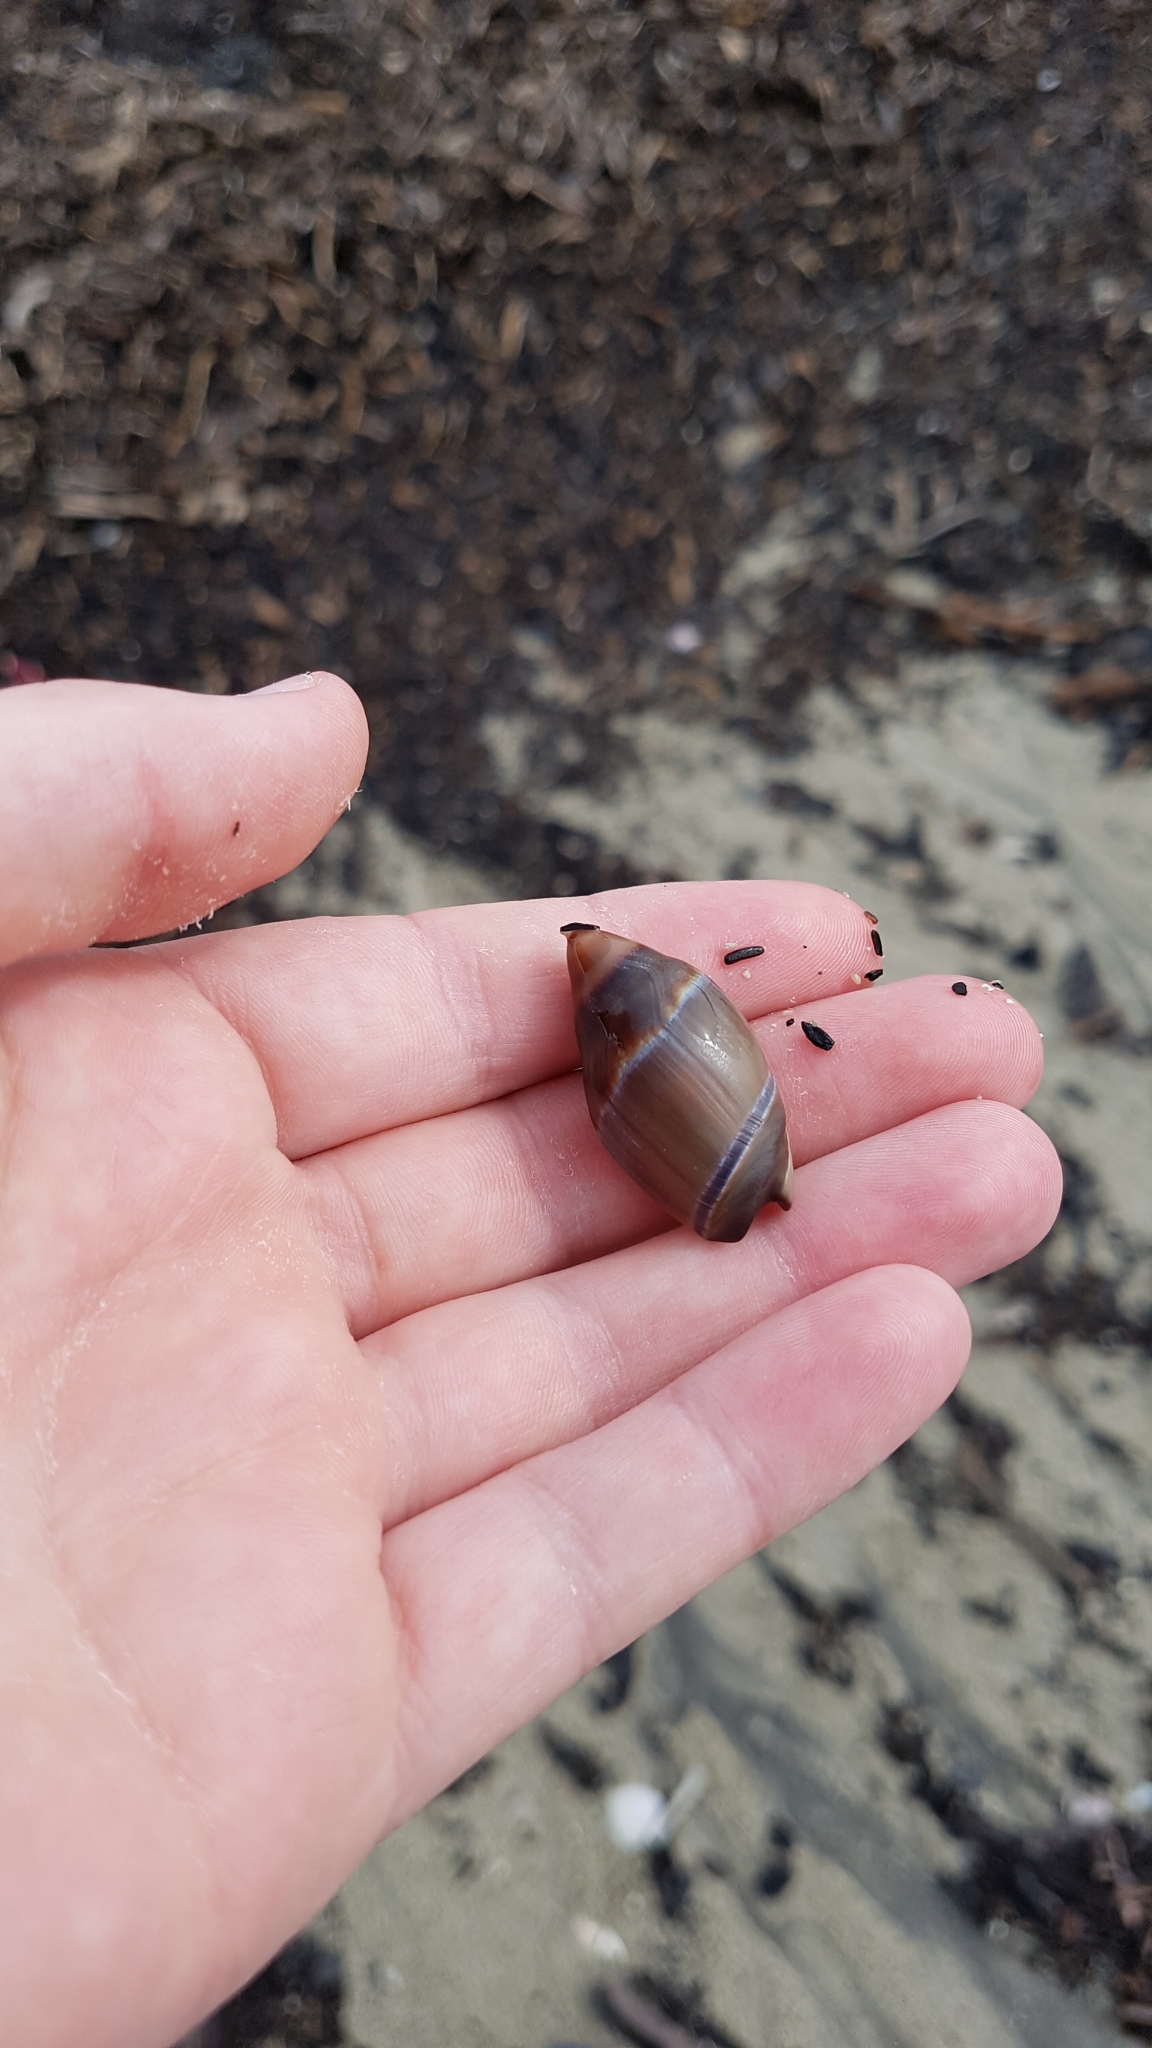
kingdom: Animalia
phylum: Mollusca
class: Gastropoda
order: Neogastropoda
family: Ancillariidae
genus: Amalda
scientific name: Amalda australis
